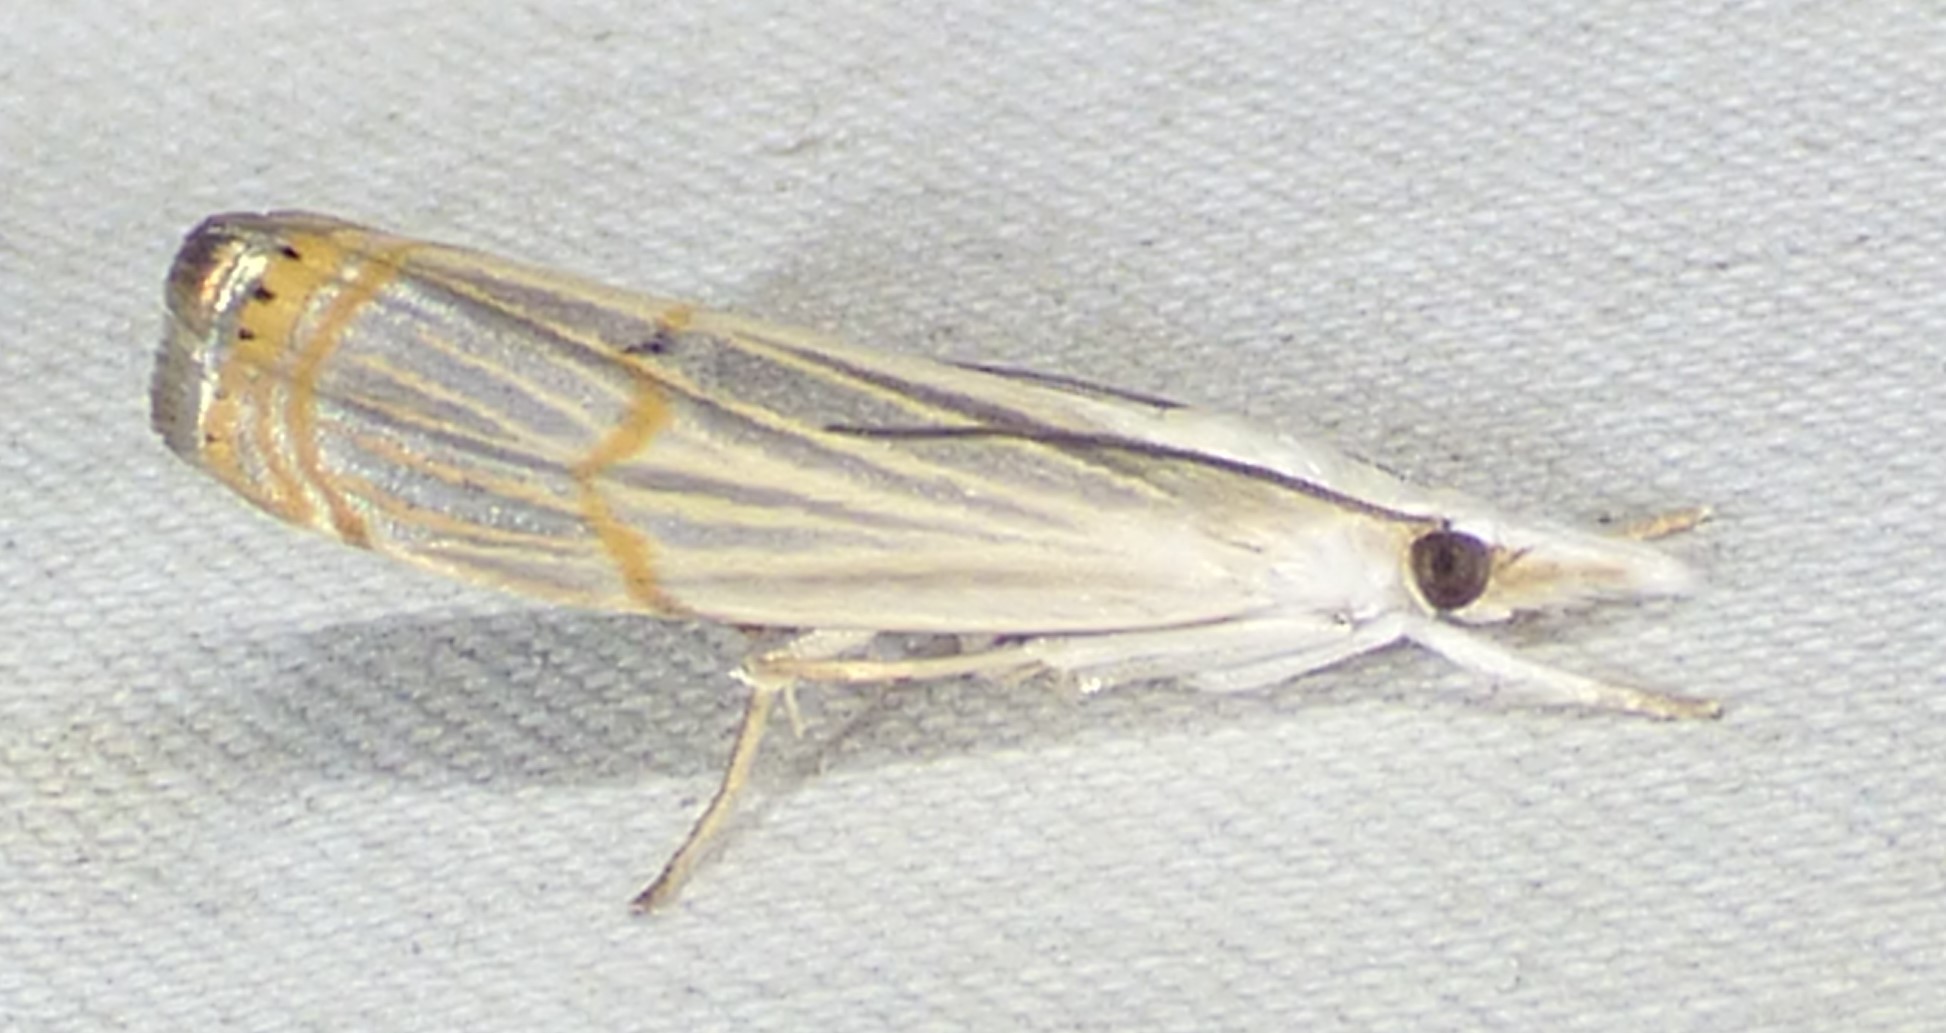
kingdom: Animalia
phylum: Arthropoda
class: Insecta
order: Lepidoptera
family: Crambidae
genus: Parapediasia
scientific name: Parapediasia decorellus
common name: Graceful grass-veneer
